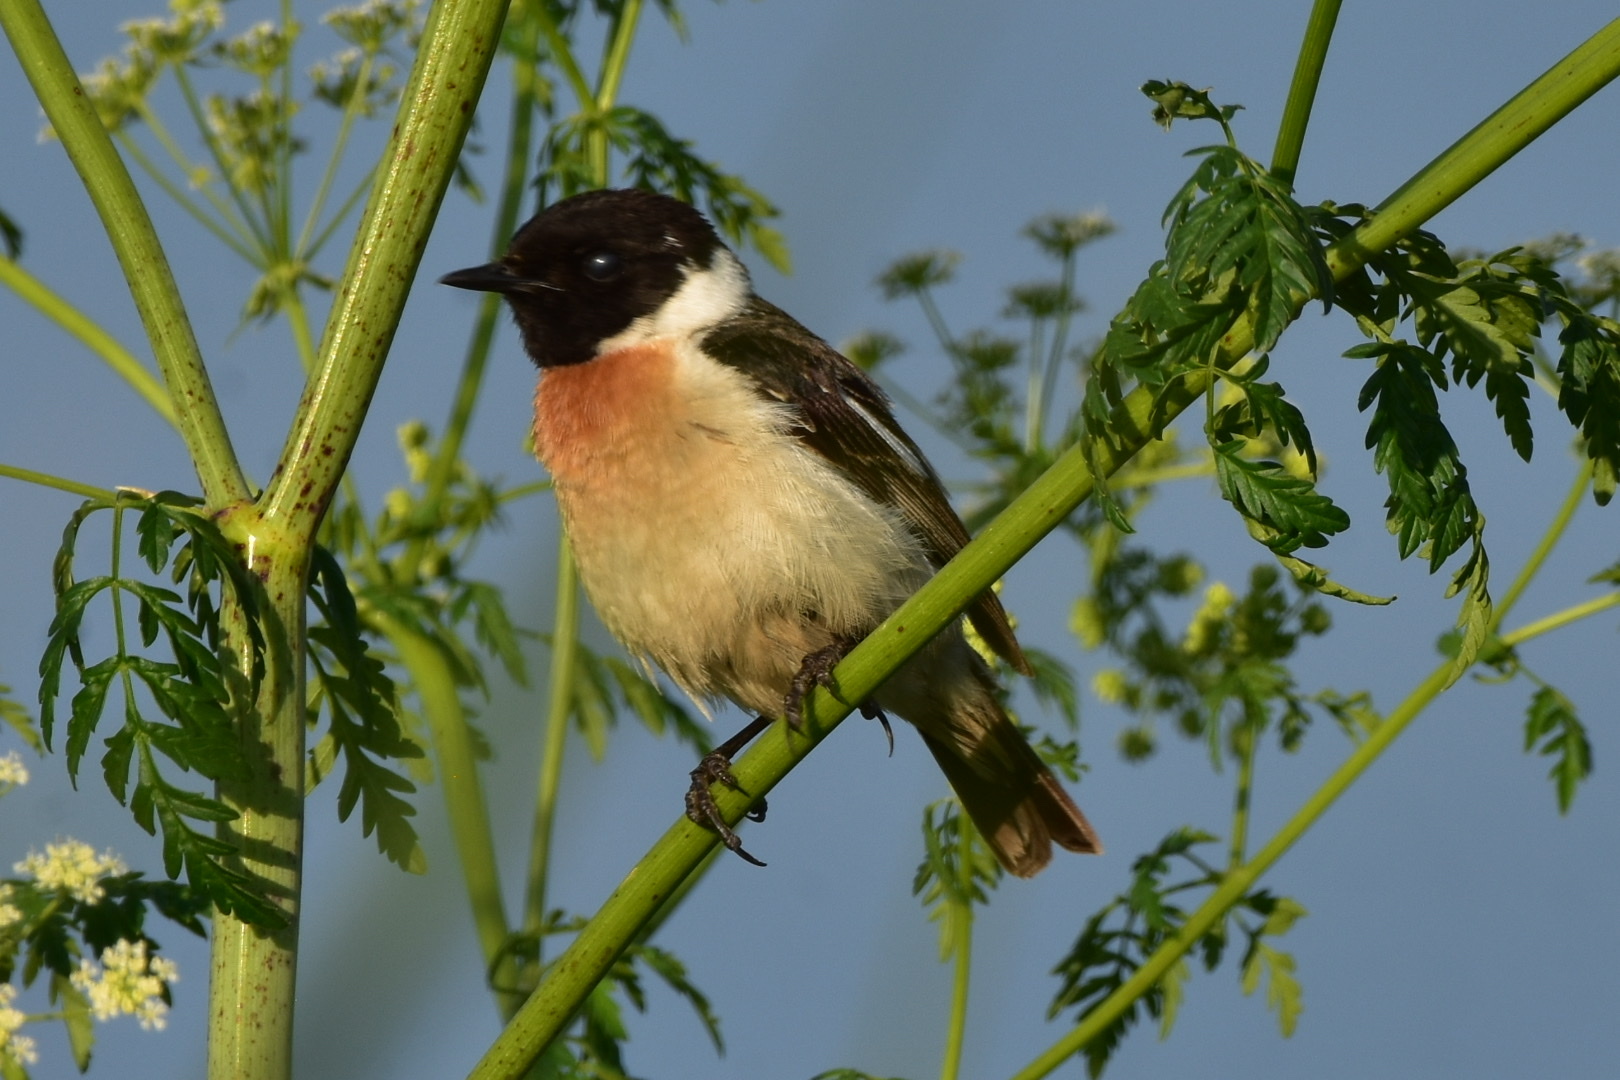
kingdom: Animalia
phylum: Chordata
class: Aves
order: Passeriformes
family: Muscicapidae
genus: Saxicola
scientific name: Saxicola maurus
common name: Siberian stonechat
